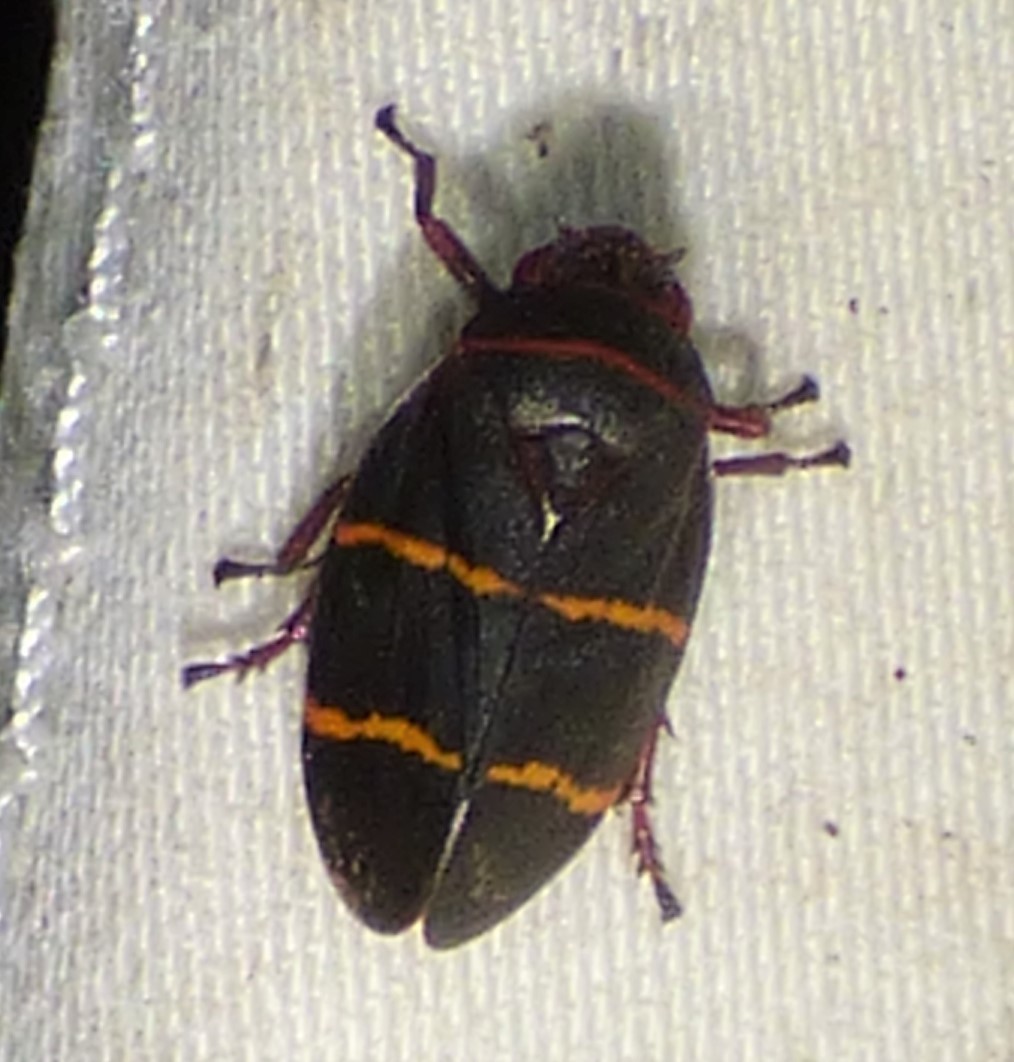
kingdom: Animalia
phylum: Arthropoda
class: Insecta
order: Hemiptera
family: Cercopidae
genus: Prosapia
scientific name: Prosapia bicincta
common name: Twolined spittlebug
